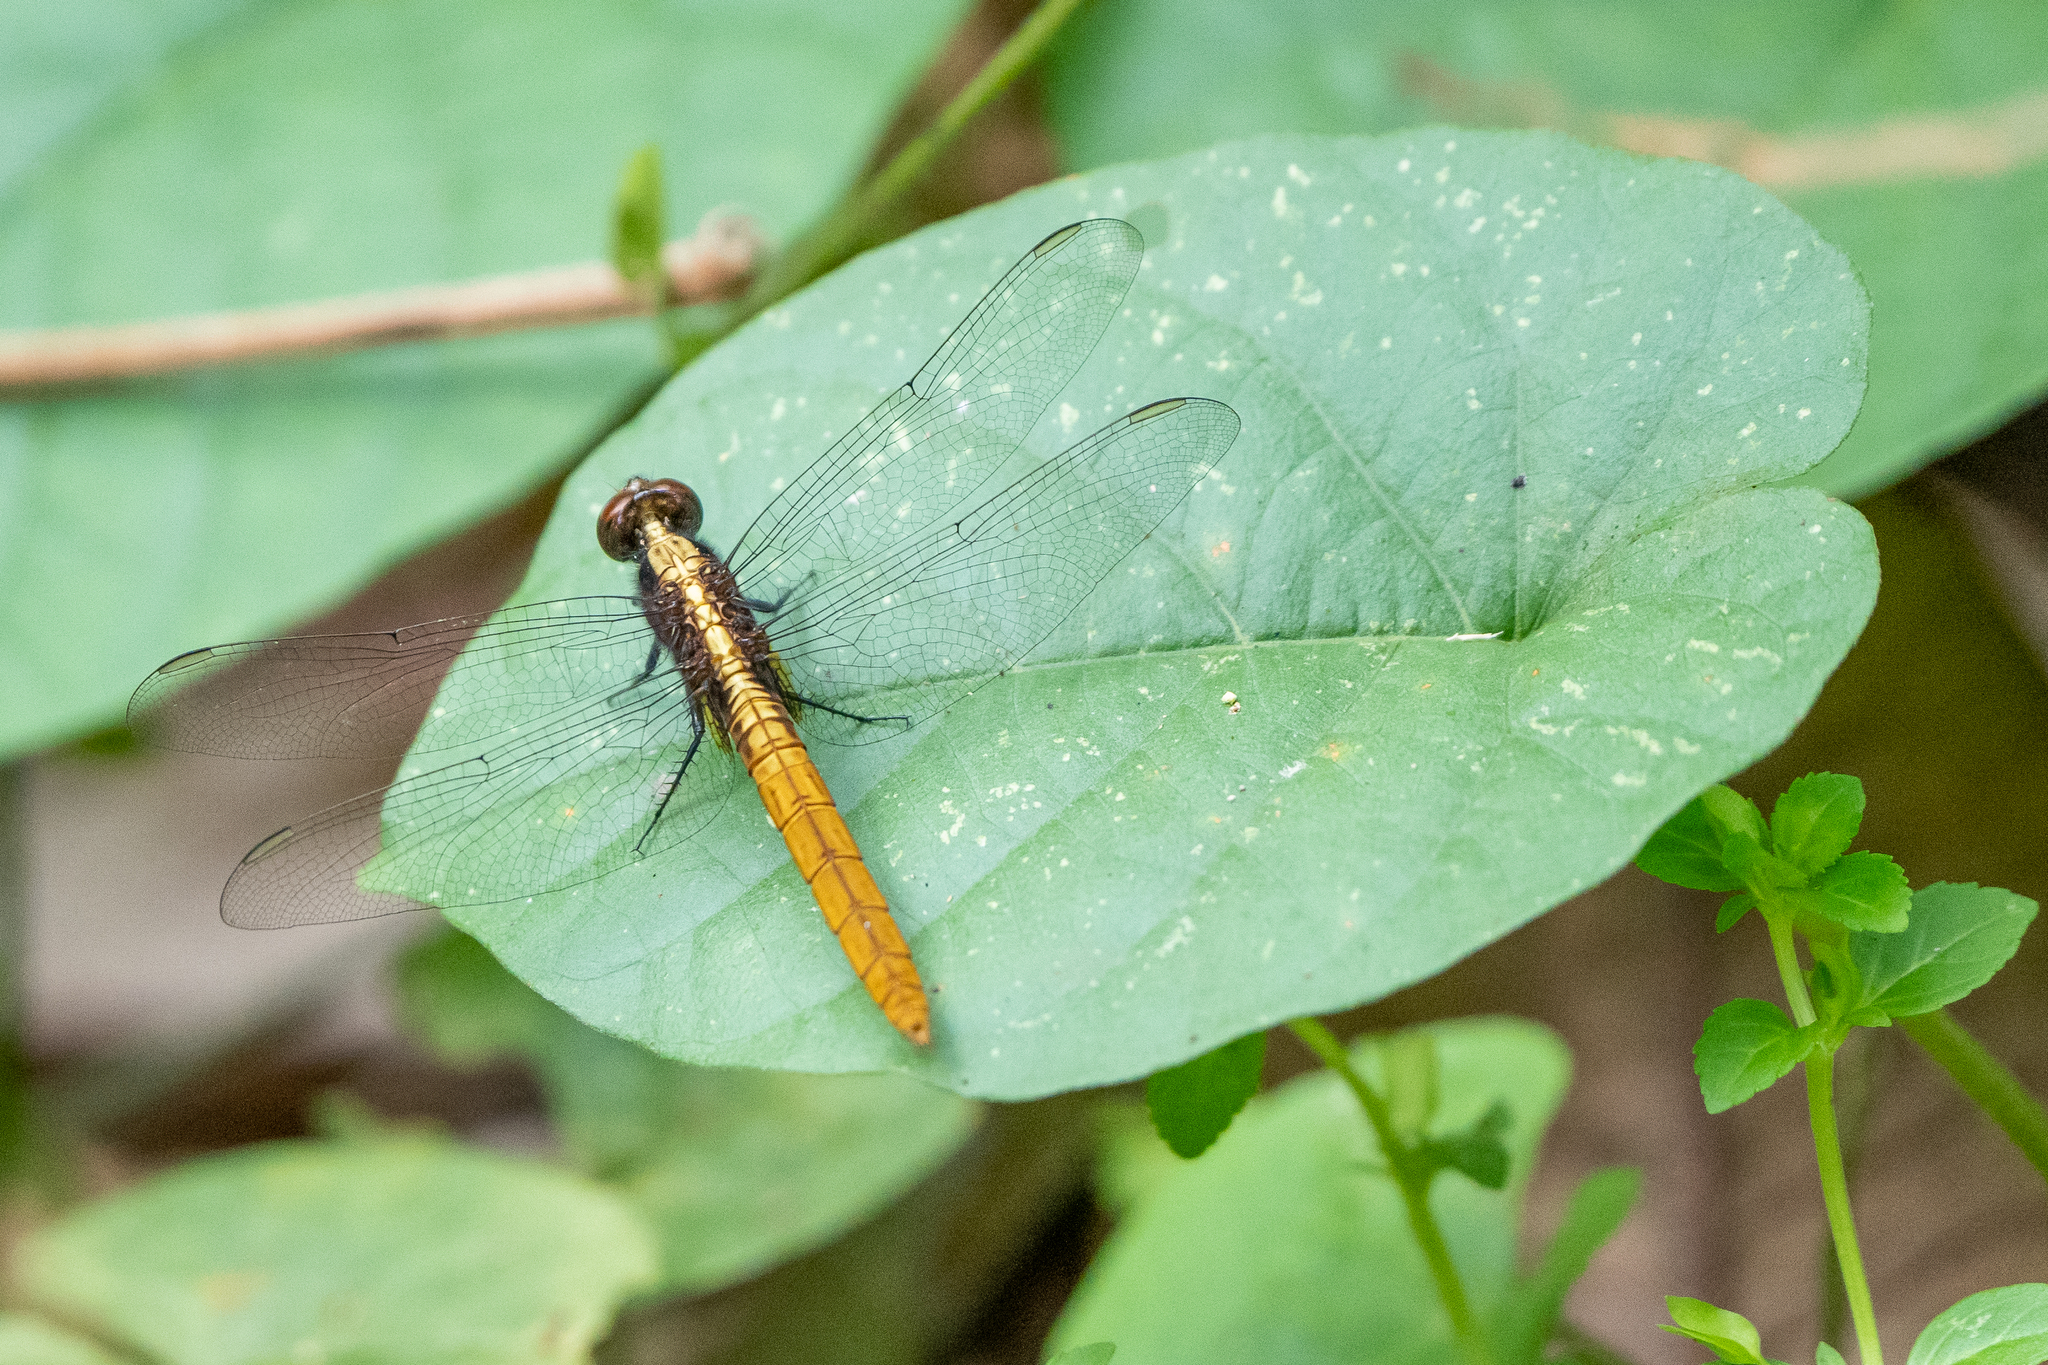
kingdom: Animalia
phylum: Arthropoda
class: Insecta
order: Odonata
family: Libellulidae
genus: Erythemis
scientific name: Erythemis peruviana
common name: Flame-tailed pondhawk
